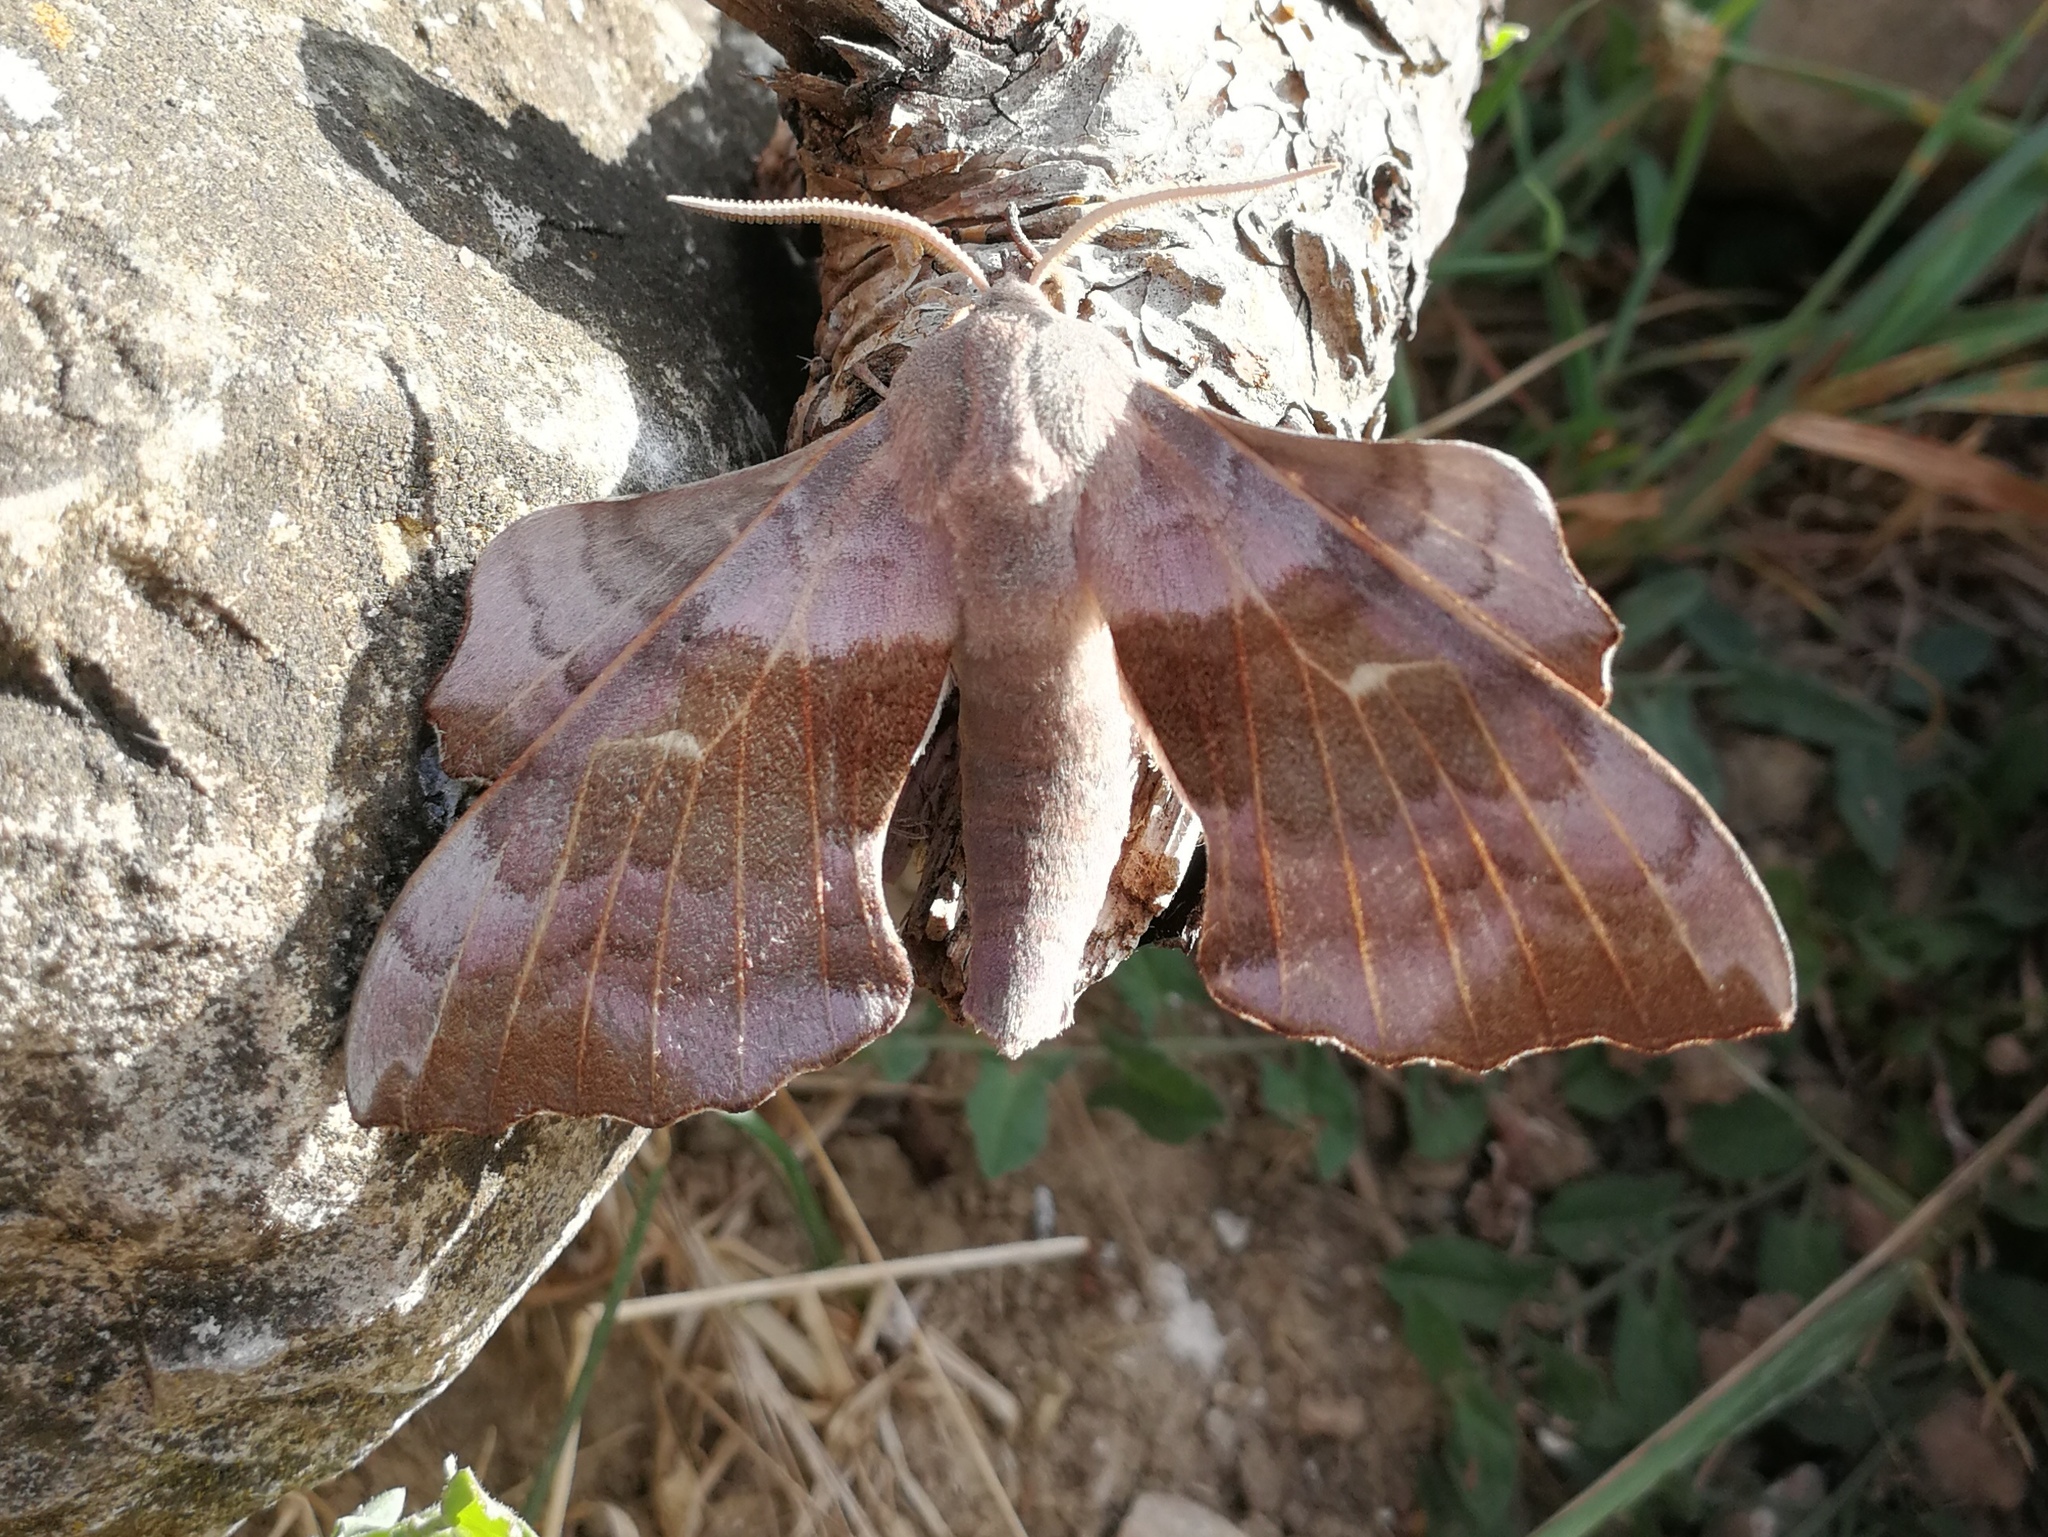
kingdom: Animalia
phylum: Arthropoda
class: Insecta
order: Lepidoptera
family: Sphingidae
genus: Laothoe
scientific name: Laothoe populi
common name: Poplar hawk-moth
